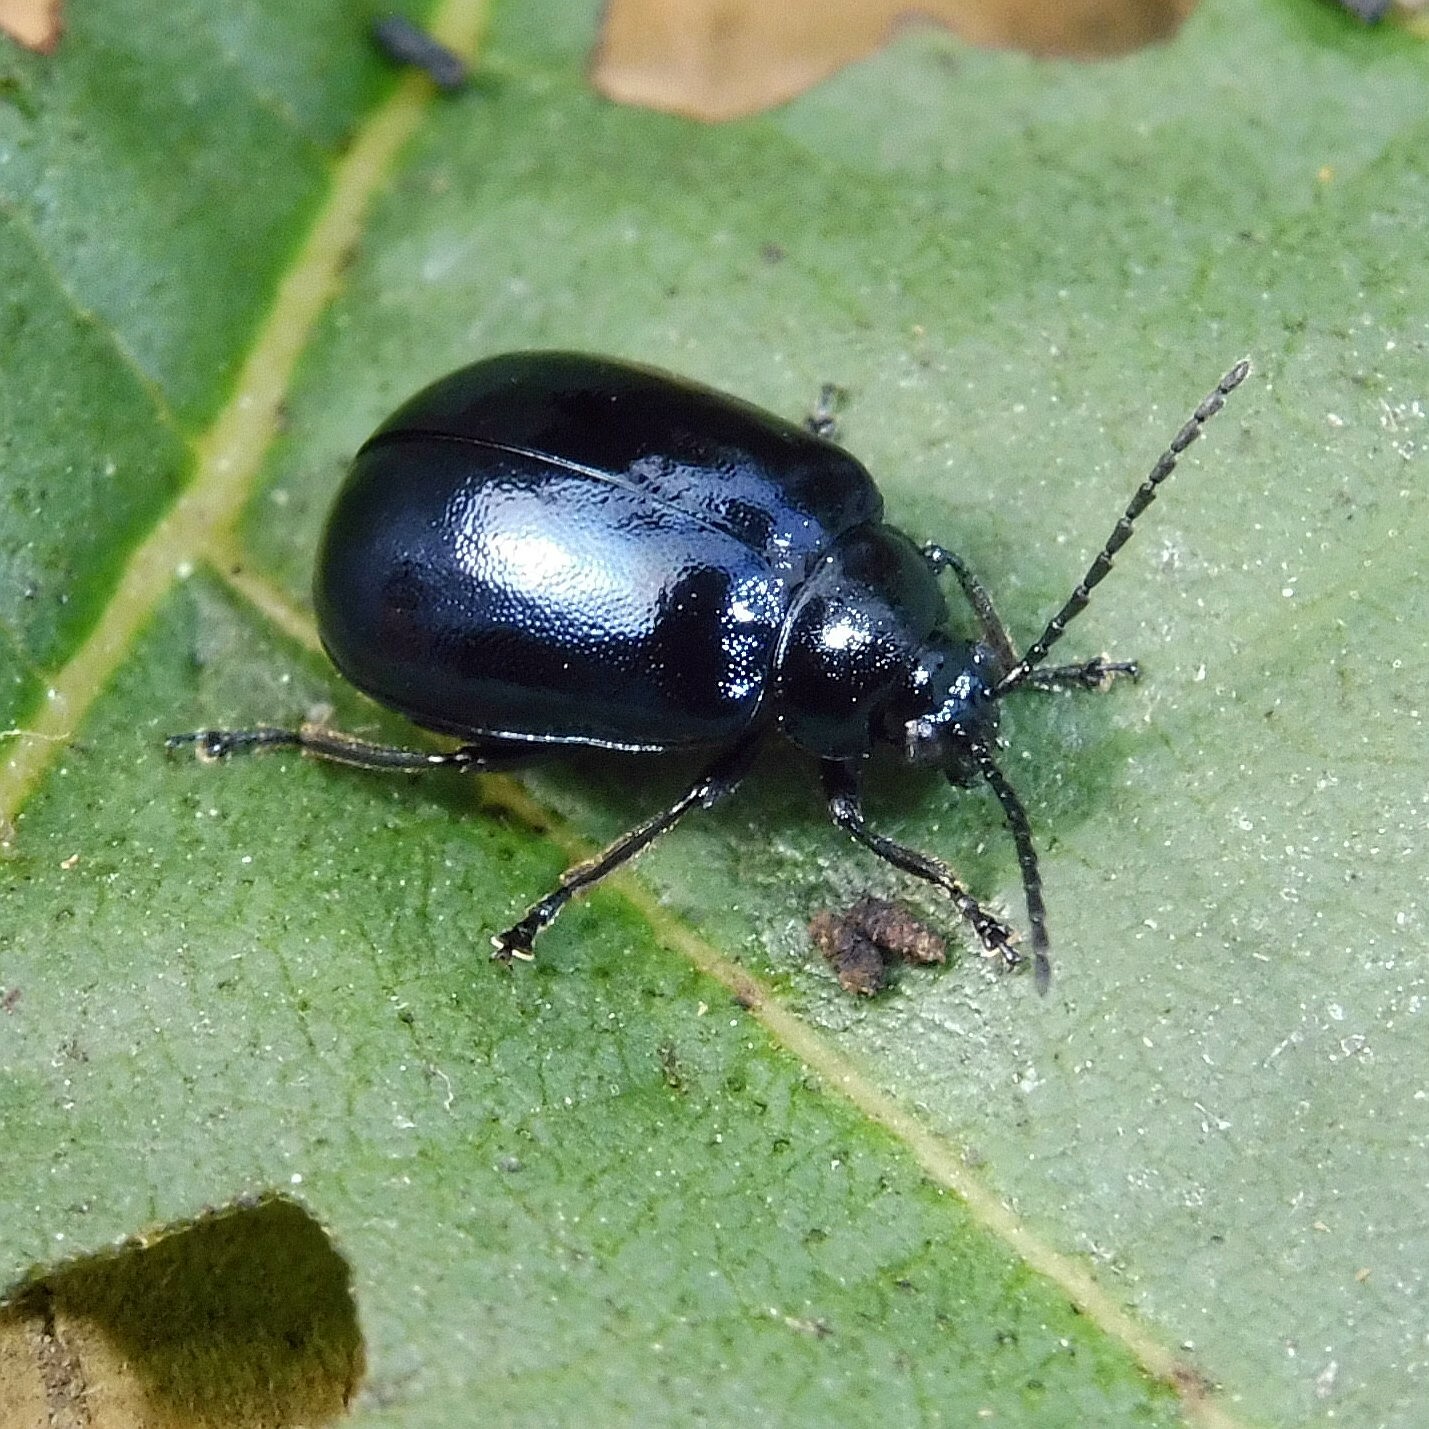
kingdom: Animalia
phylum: Arthropoda
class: Insecta
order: Coleoptera
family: Chrysomelidae
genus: Agelastica
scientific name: Agelastica alni
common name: Alder leaf beetle
